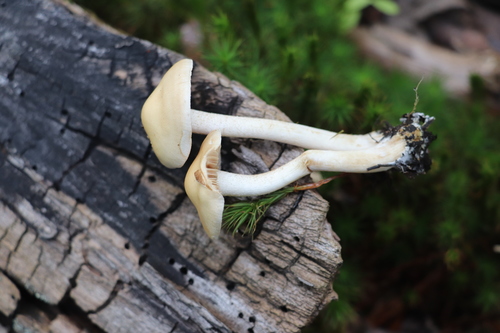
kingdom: Fungi
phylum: Basidiomycota
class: Agaricomycetes
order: Agaricales
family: Hymenogastraceae
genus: Hebeloma
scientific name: Hebeloma
